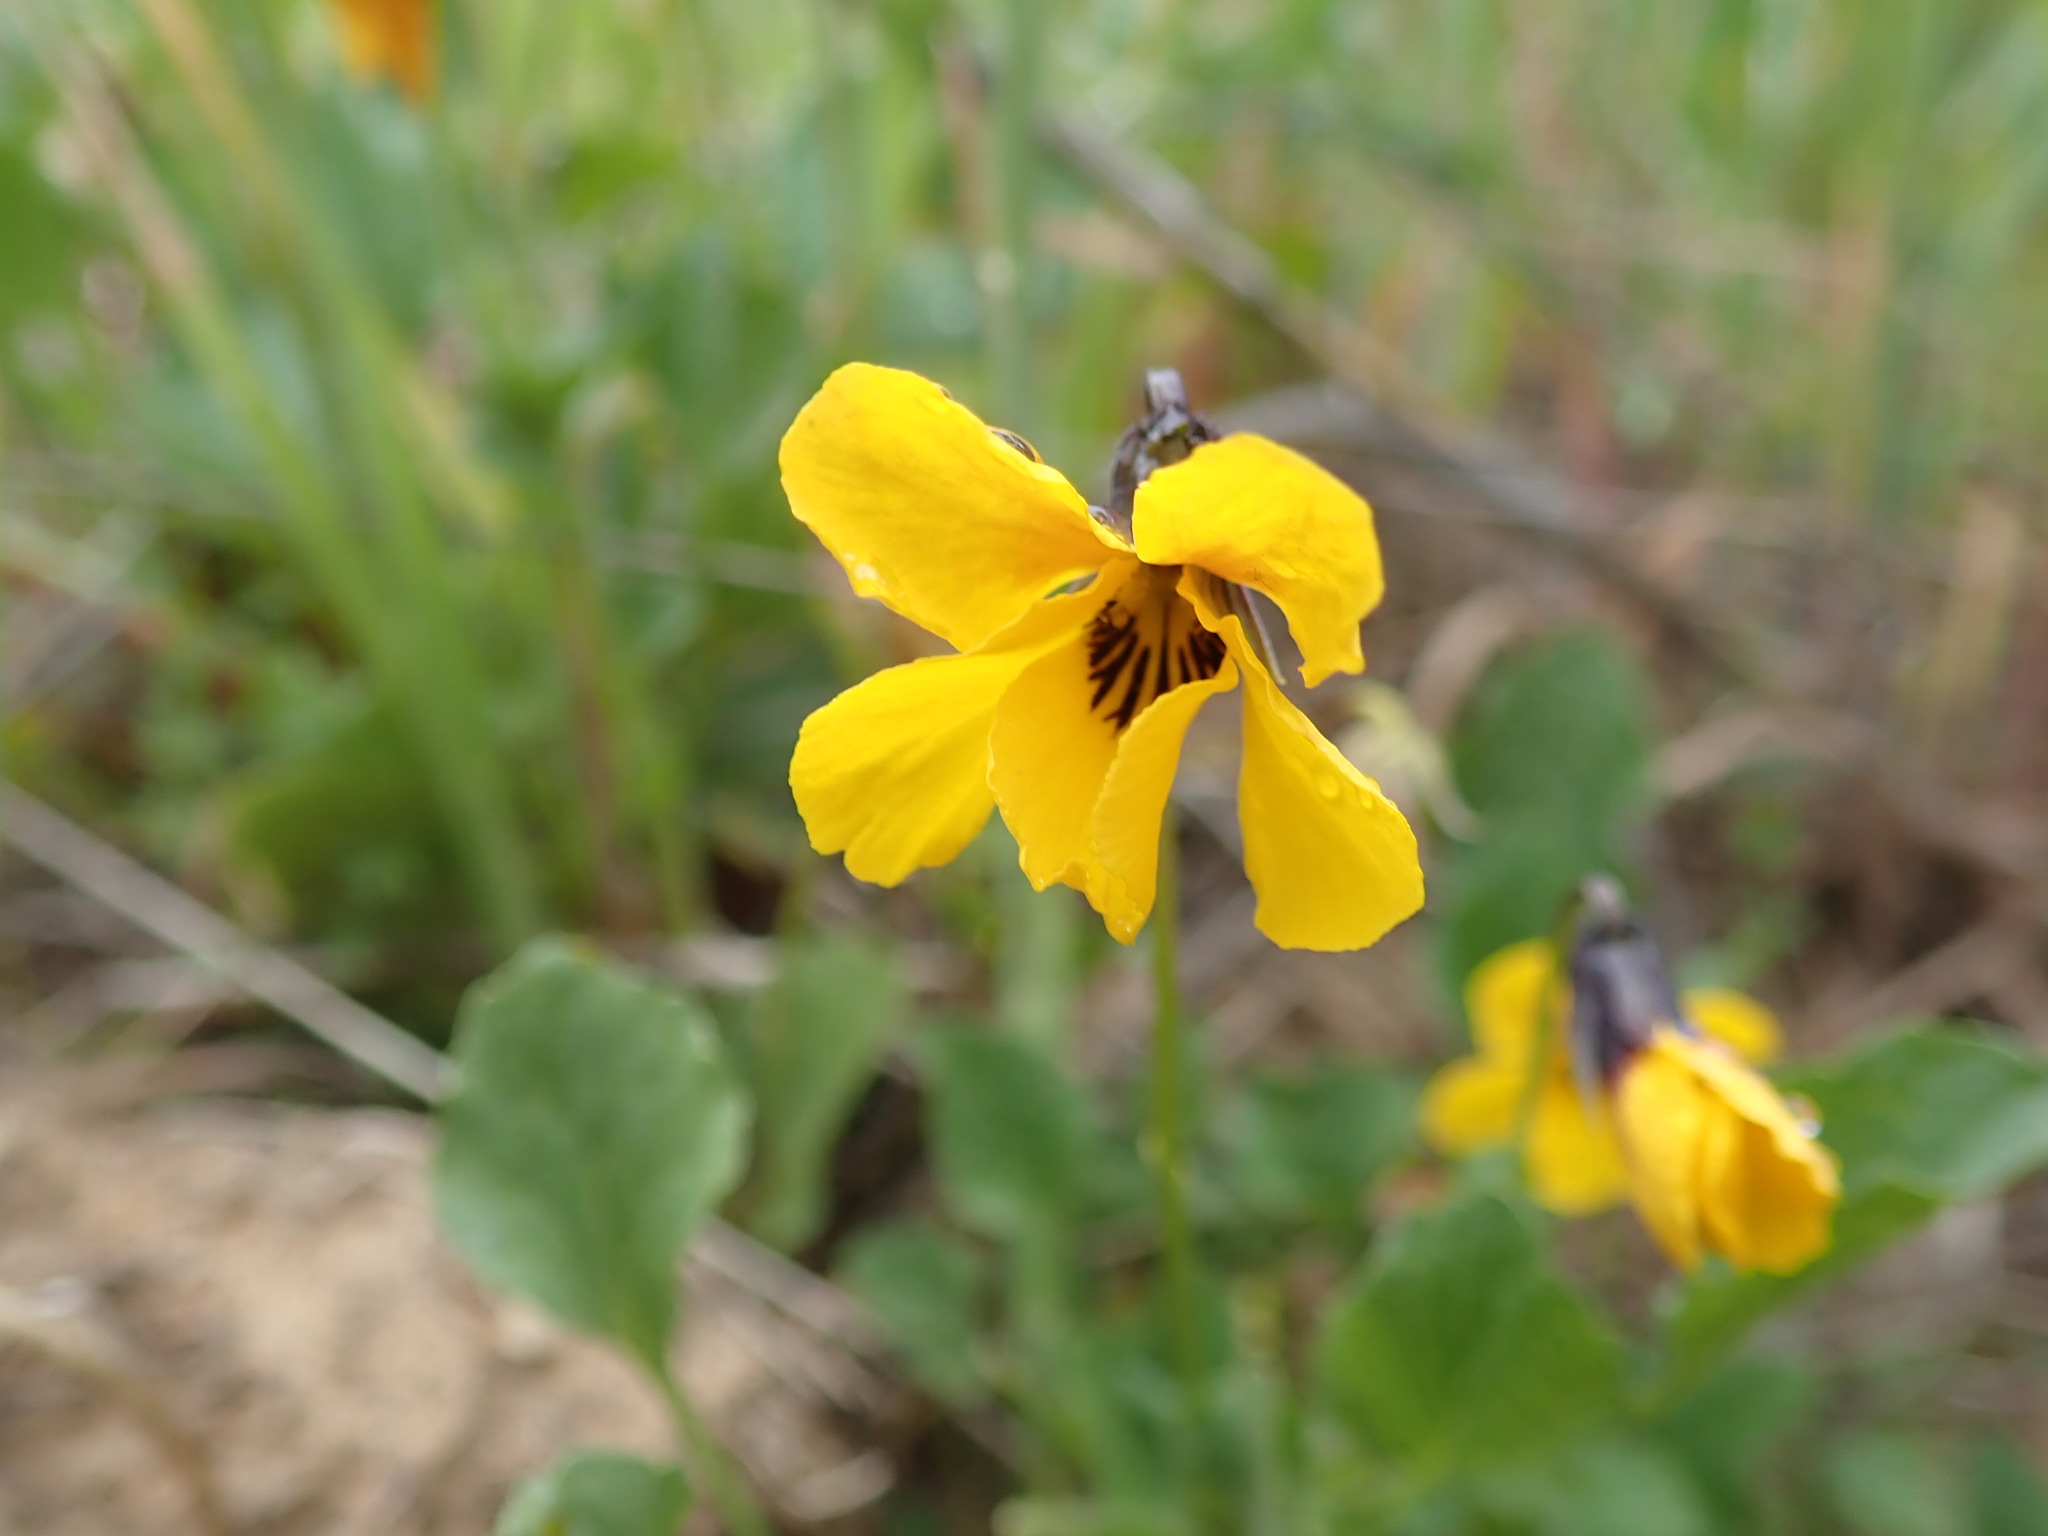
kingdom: Plantae
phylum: Tracheophyta
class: Magnoliopsida
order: Malpighiales
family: Violaceae
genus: Viola
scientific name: Viola pedunculata
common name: California golden violet
